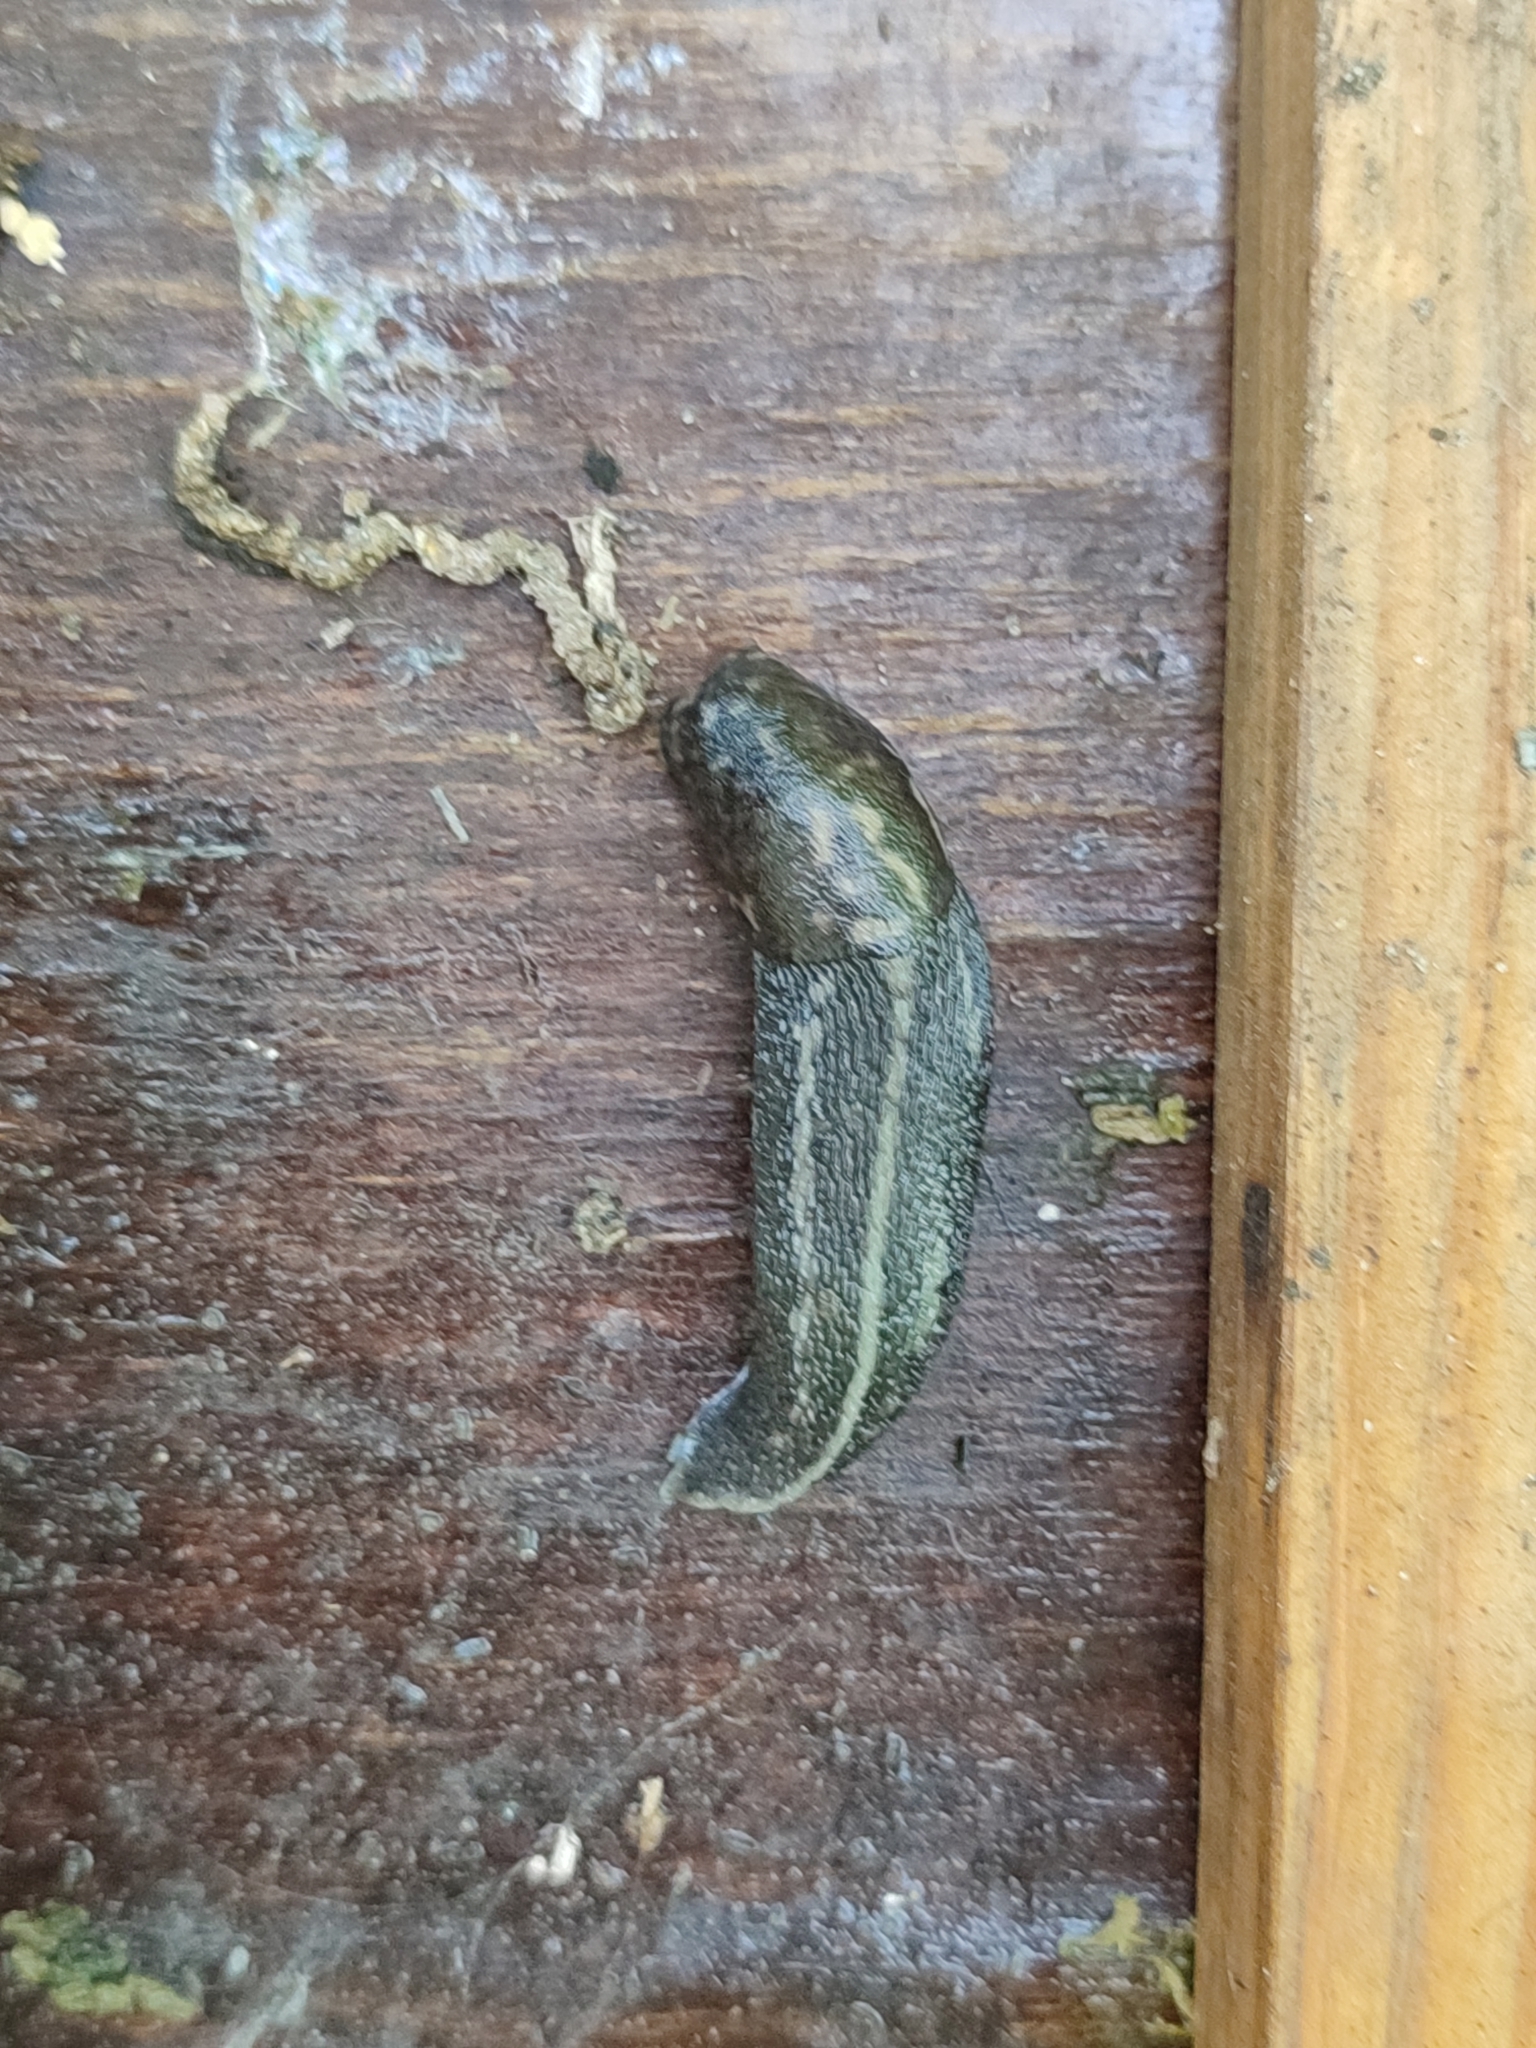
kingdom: Animalia
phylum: Mollusca
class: Gastropoda
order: Stylommatophora
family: Limacidae
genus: Limax
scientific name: Limax maximus
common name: Great grey slug
